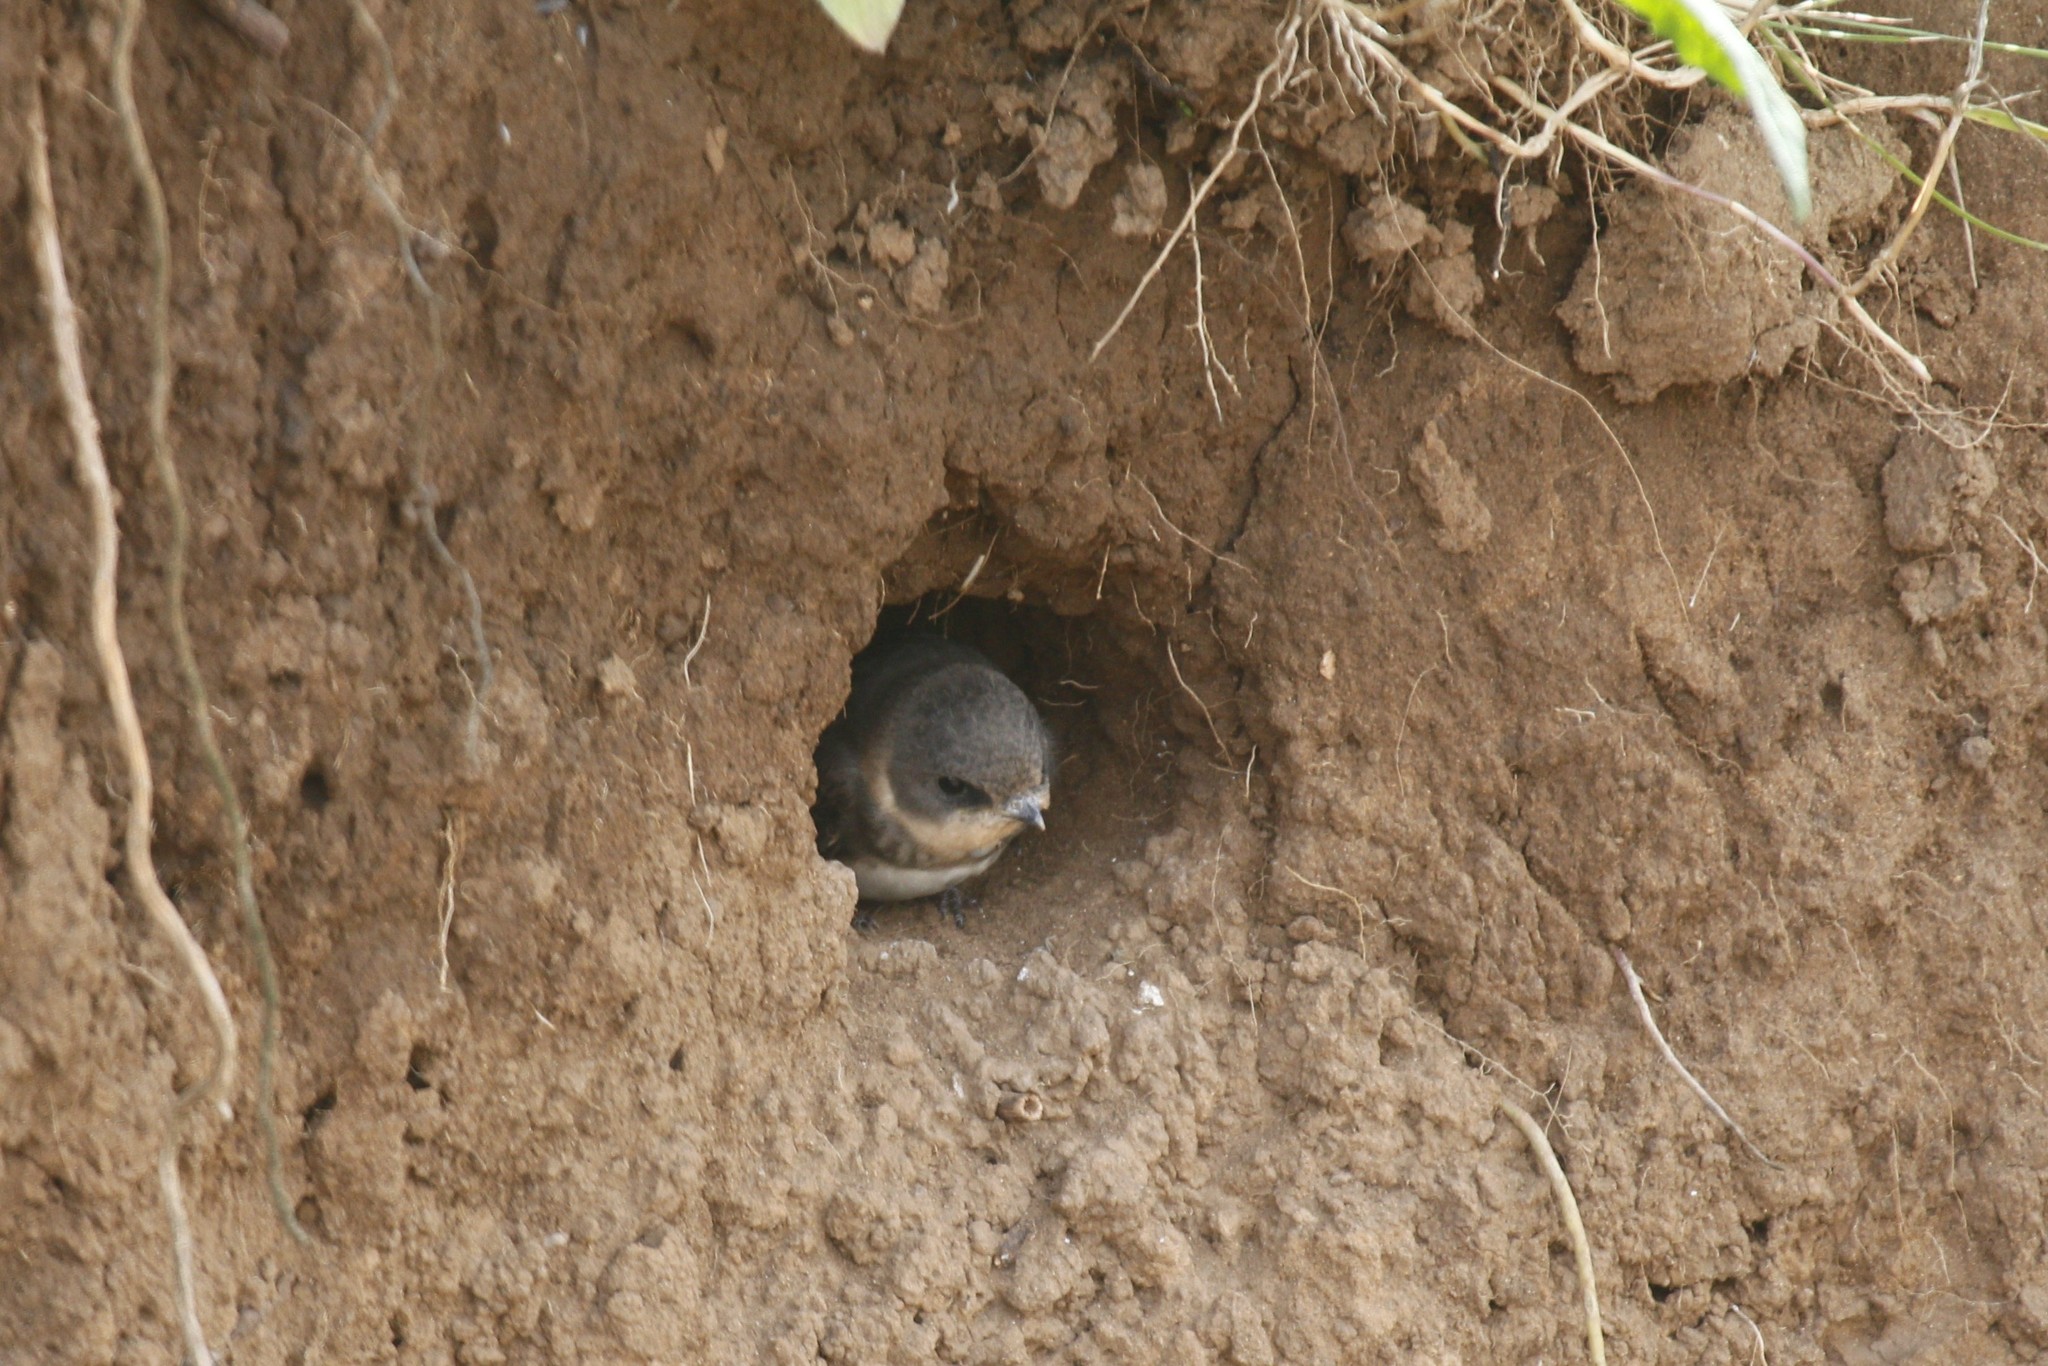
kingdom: Animalia
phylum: Chordata
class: Aves
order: Passeriformes
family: Hirundinidae
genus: Riparia
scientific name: Riparia riparia
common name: Sand martin
